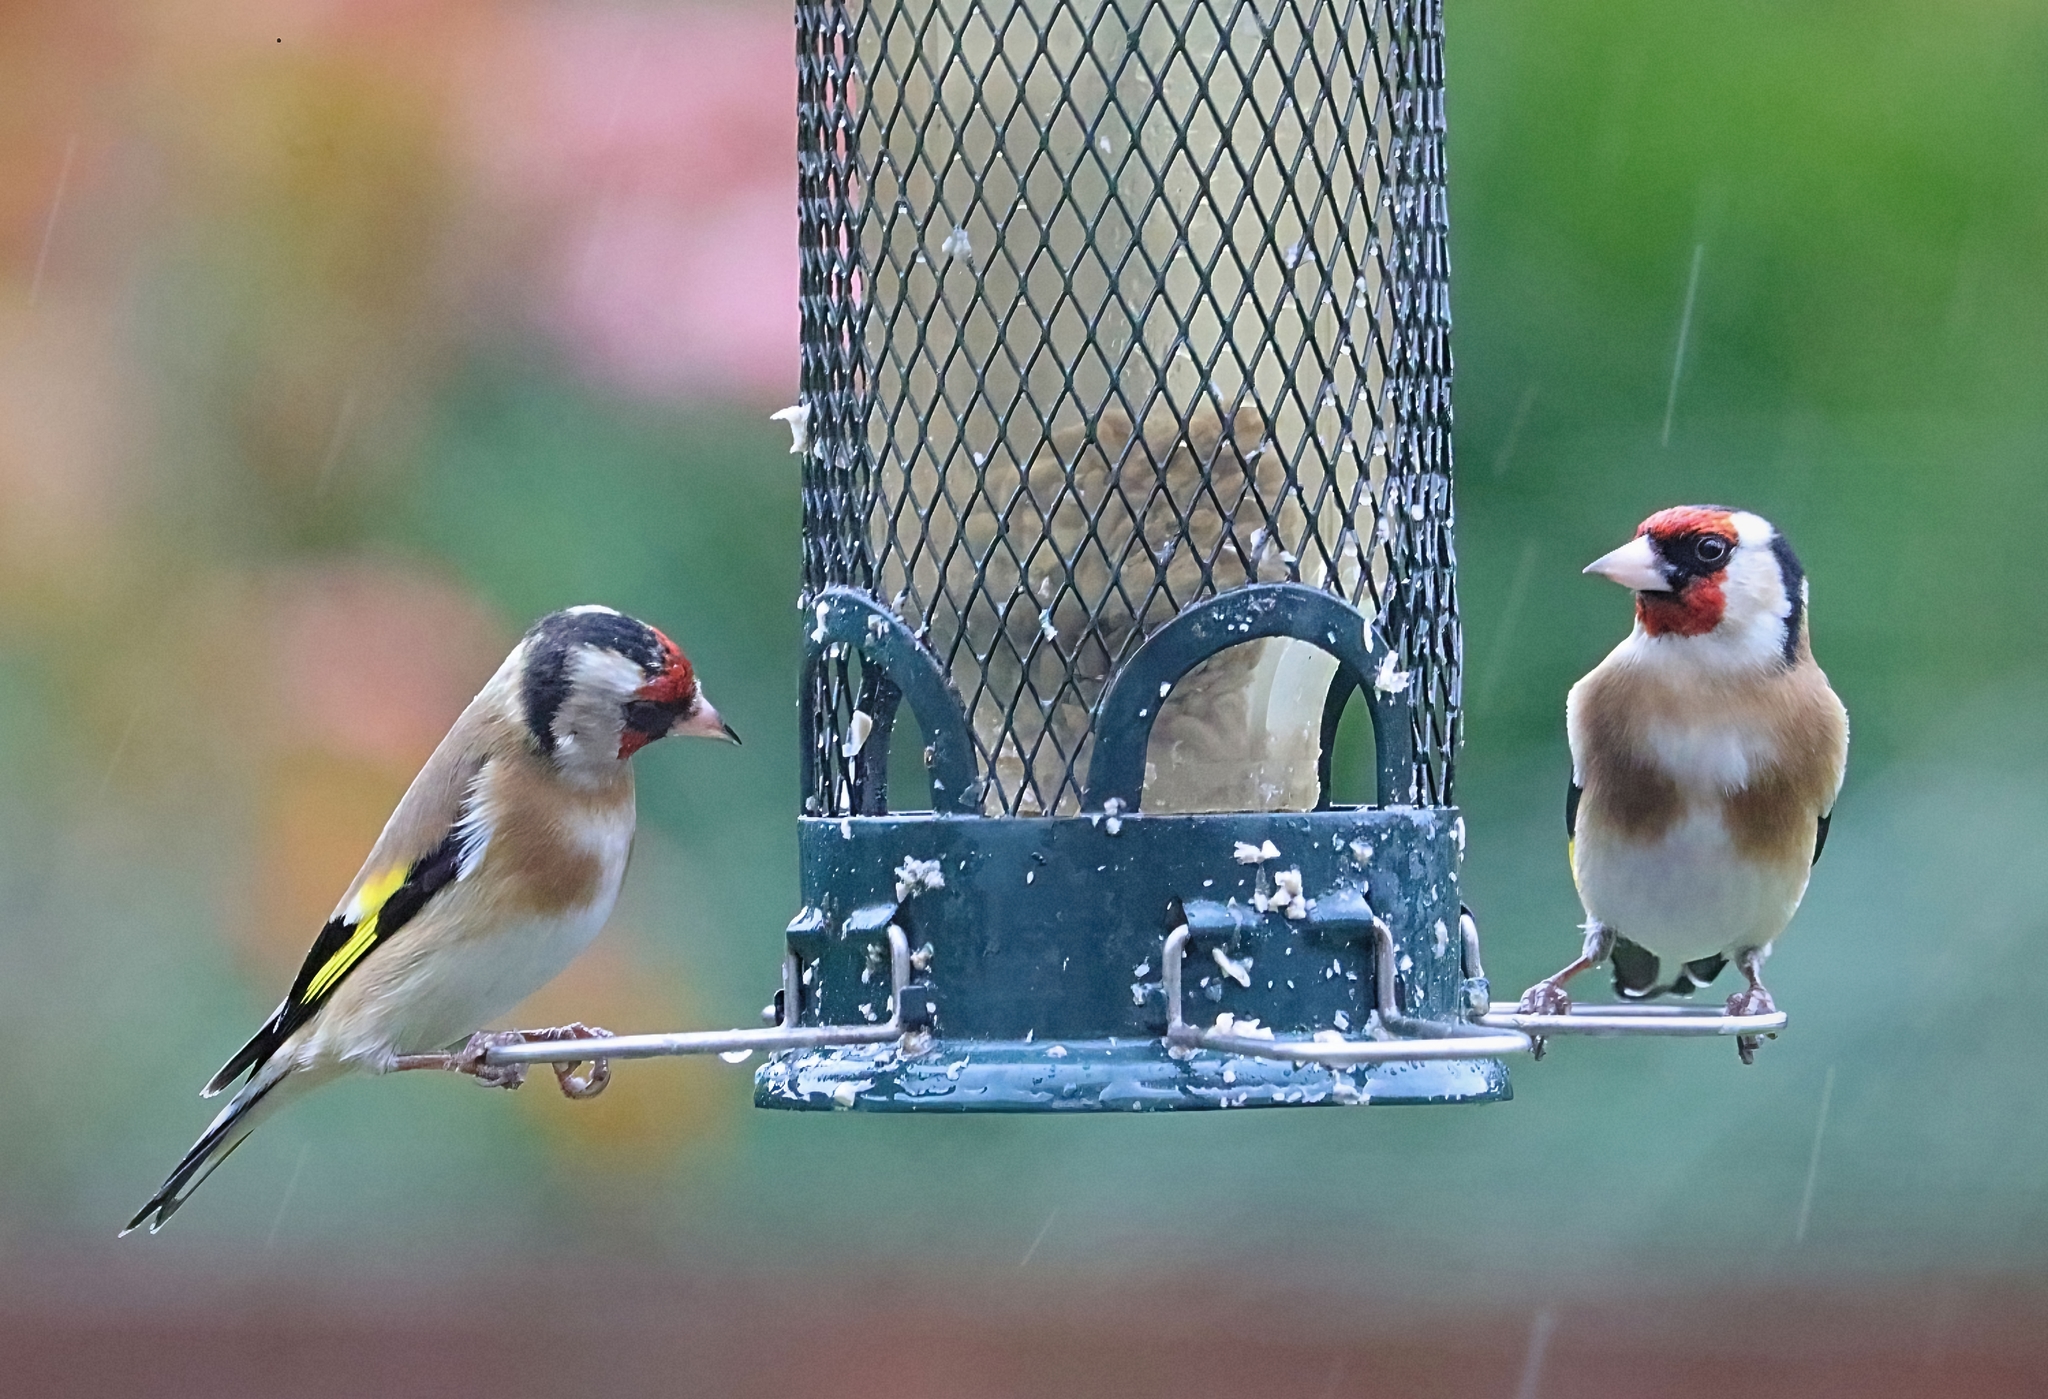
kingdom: Animalia
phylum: Chordata
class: Aves
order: Passeriformes
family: Fringillidae
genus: Carduelis
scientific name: Carduelis carduelis
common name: European goldfinch
